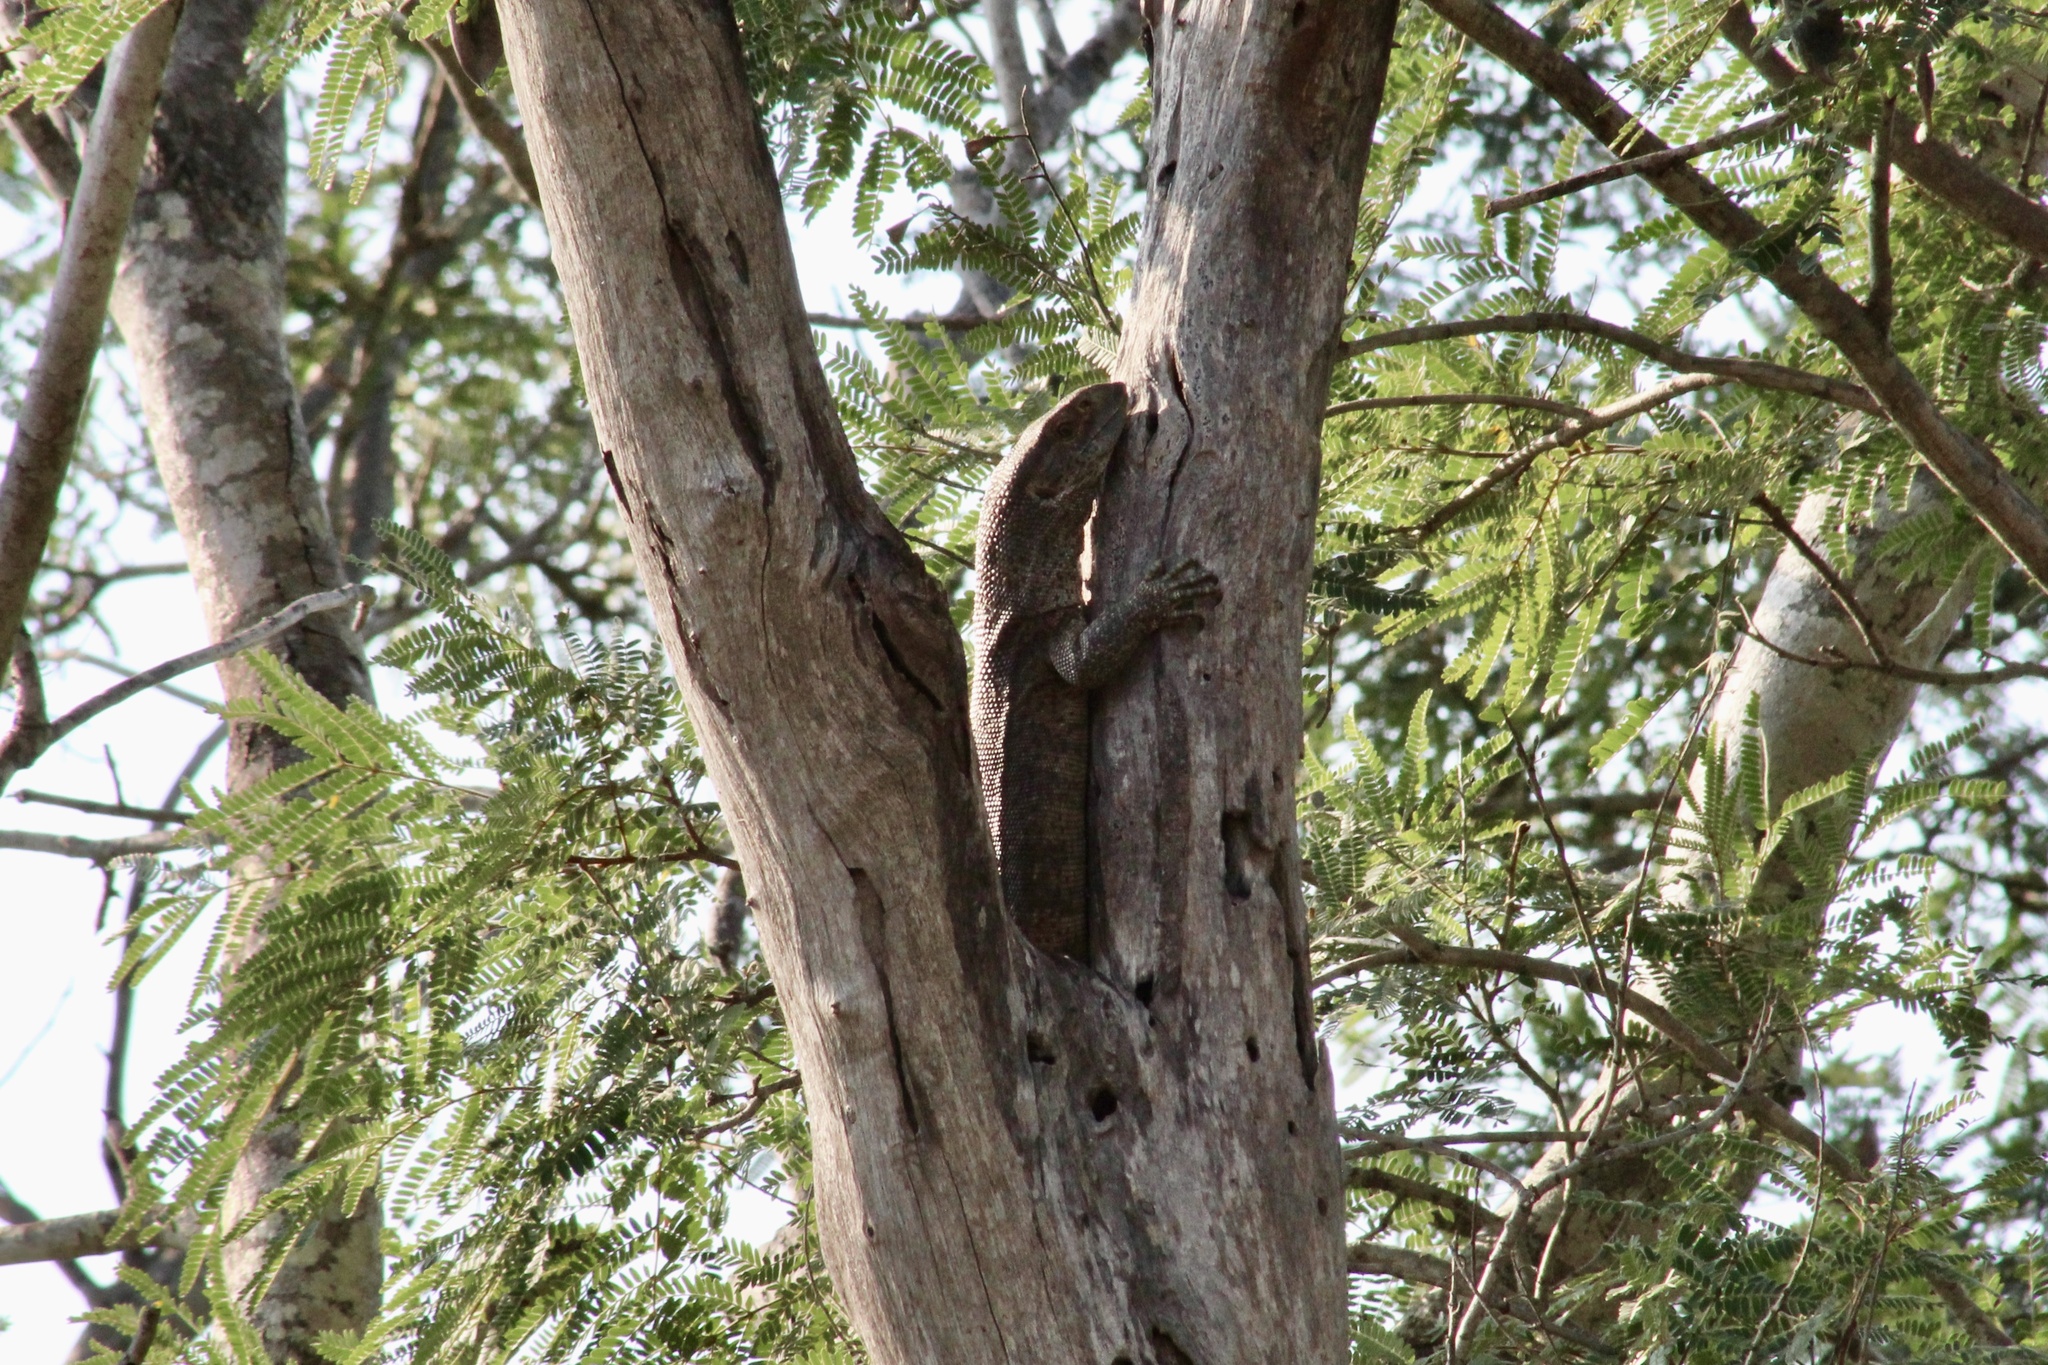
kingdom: Animalia
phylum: Chordata
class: Squamata
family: Varanidae
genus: Varanus
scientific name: Varanus albigularis
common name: White-throated monitor
